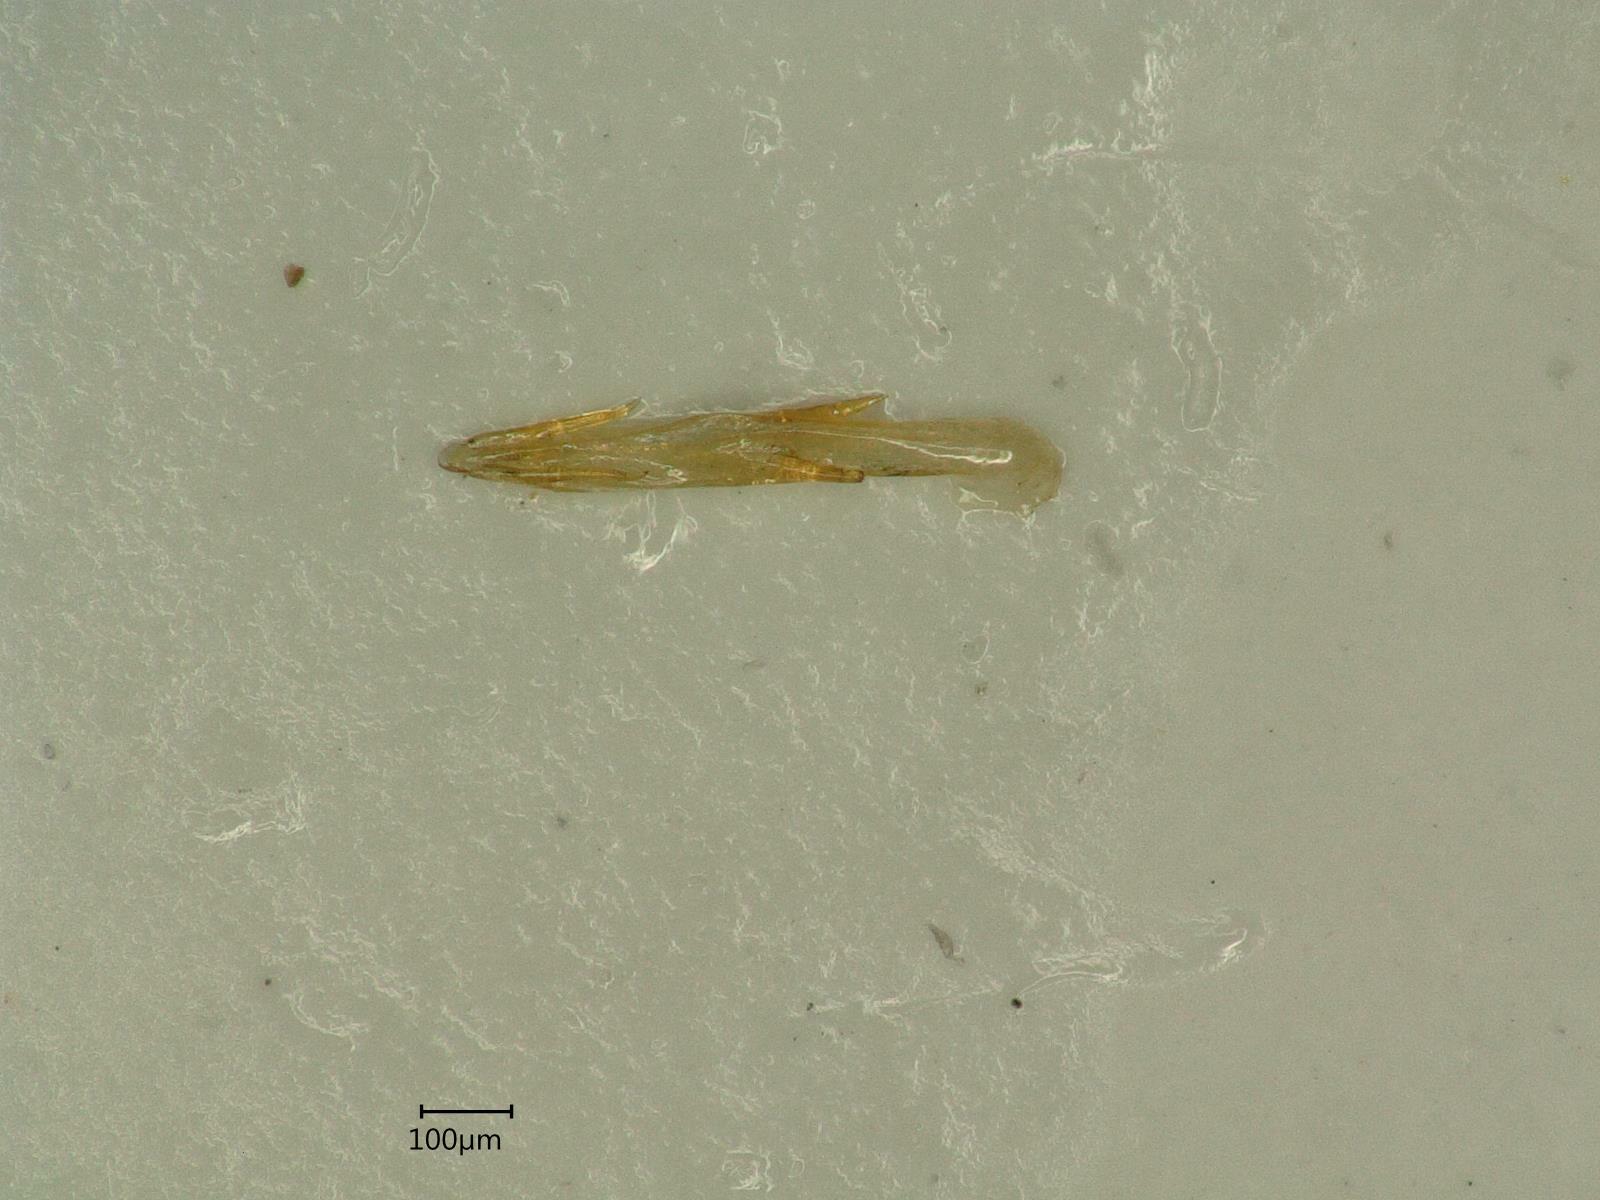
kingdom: Animalia
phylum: Arthropoda
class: Insecta
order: Hemiptera
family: Cicadellidae
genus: Anoscopus
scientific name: Anoscopus albifrons
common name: Leafhopper
